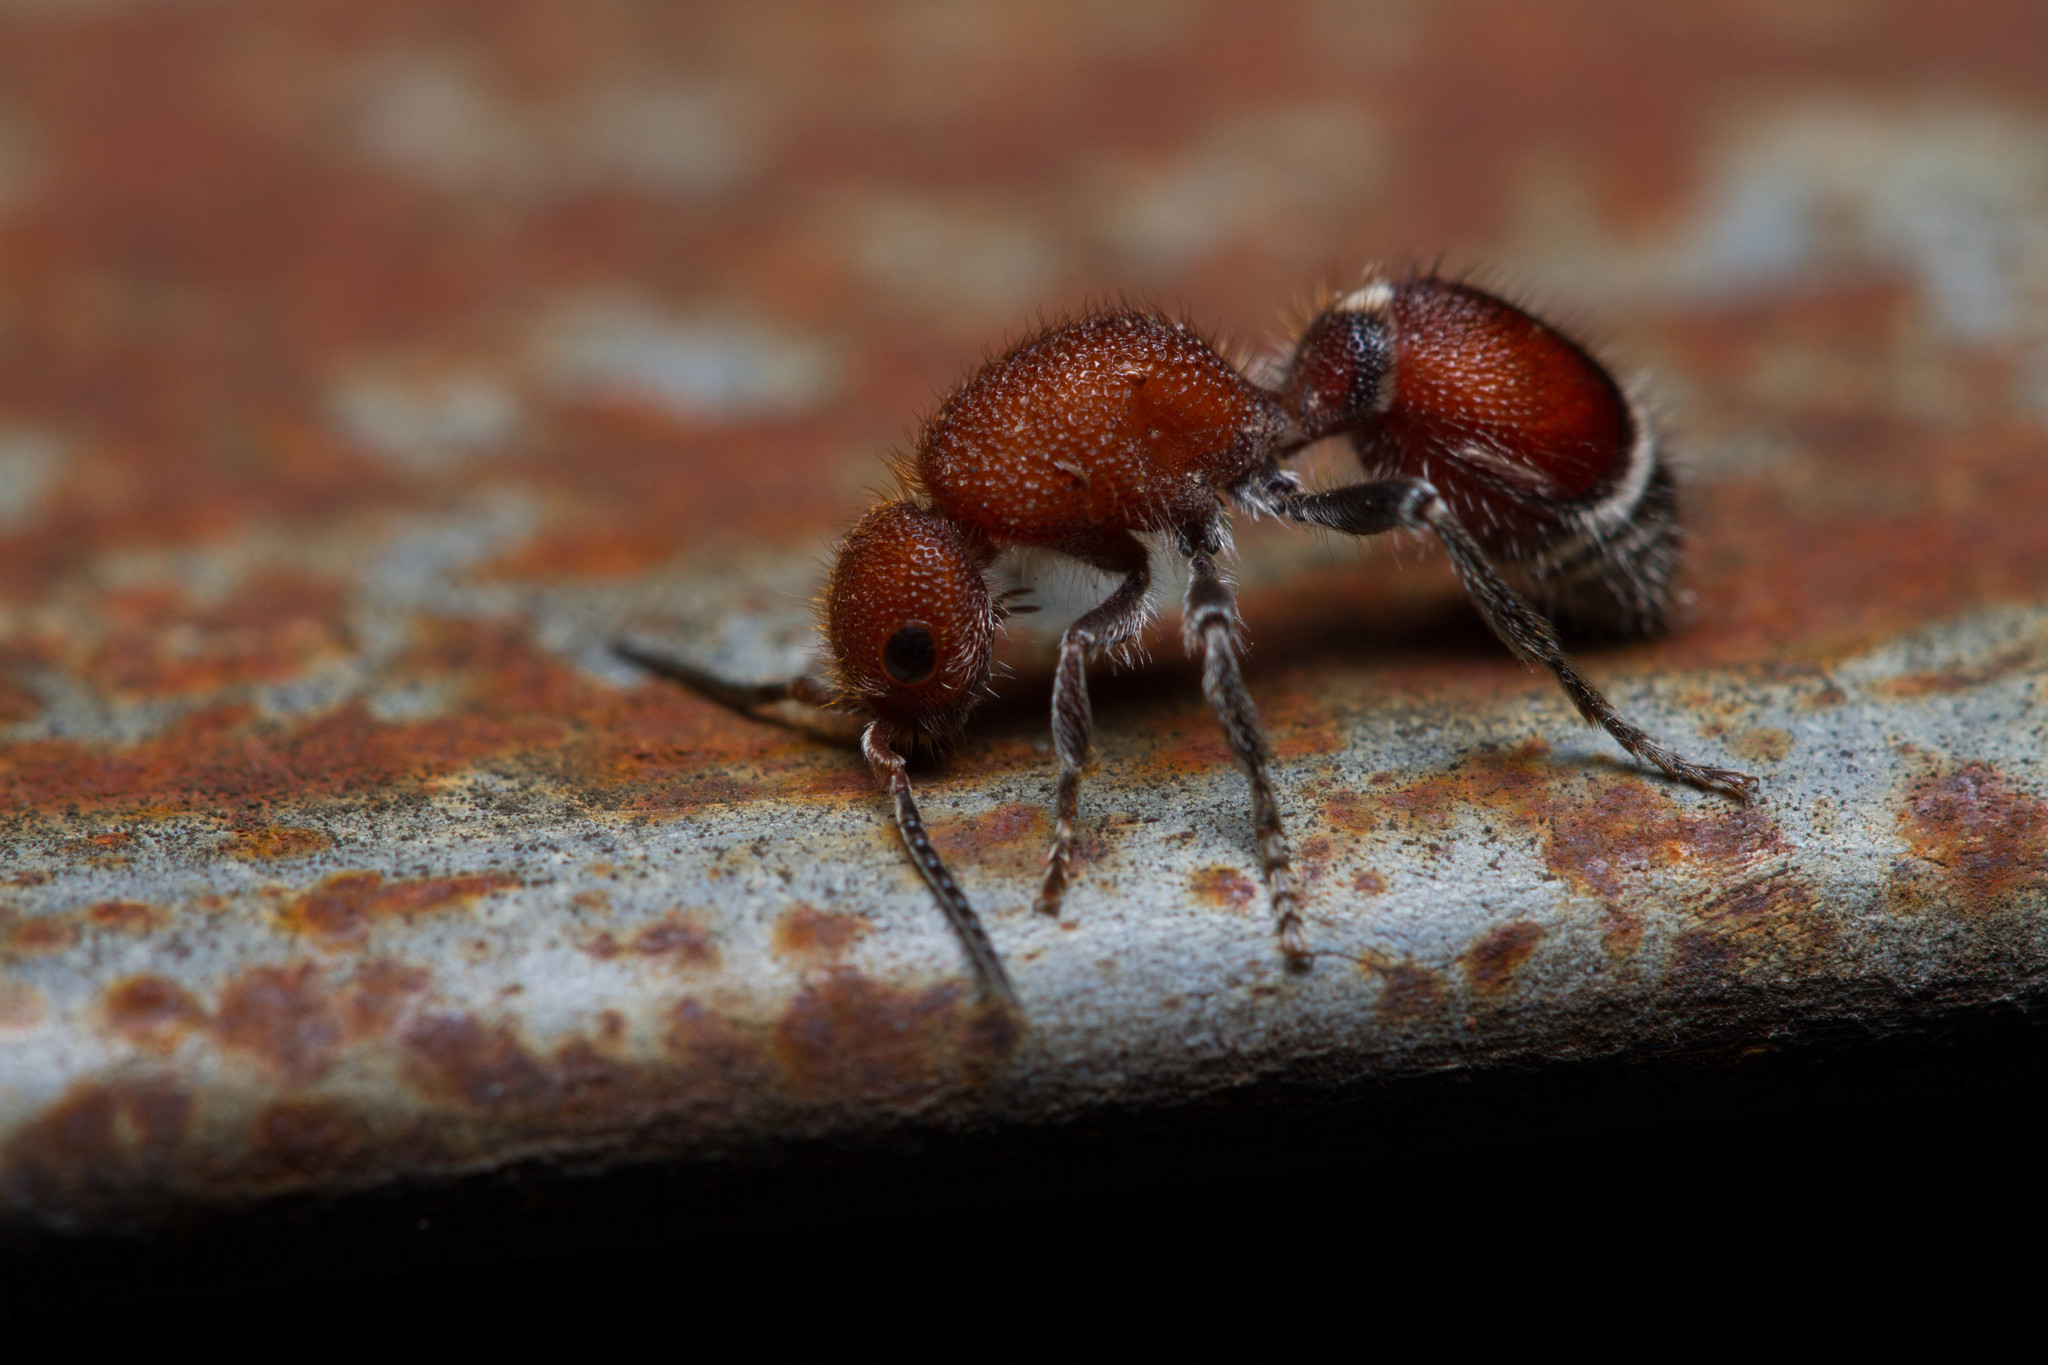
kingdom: Animalia
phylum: Arthropoda
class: Insecta
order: Hymenoptera
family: Mutillidae
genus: Sphaeropthalma
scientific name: Sphaeropthalma
